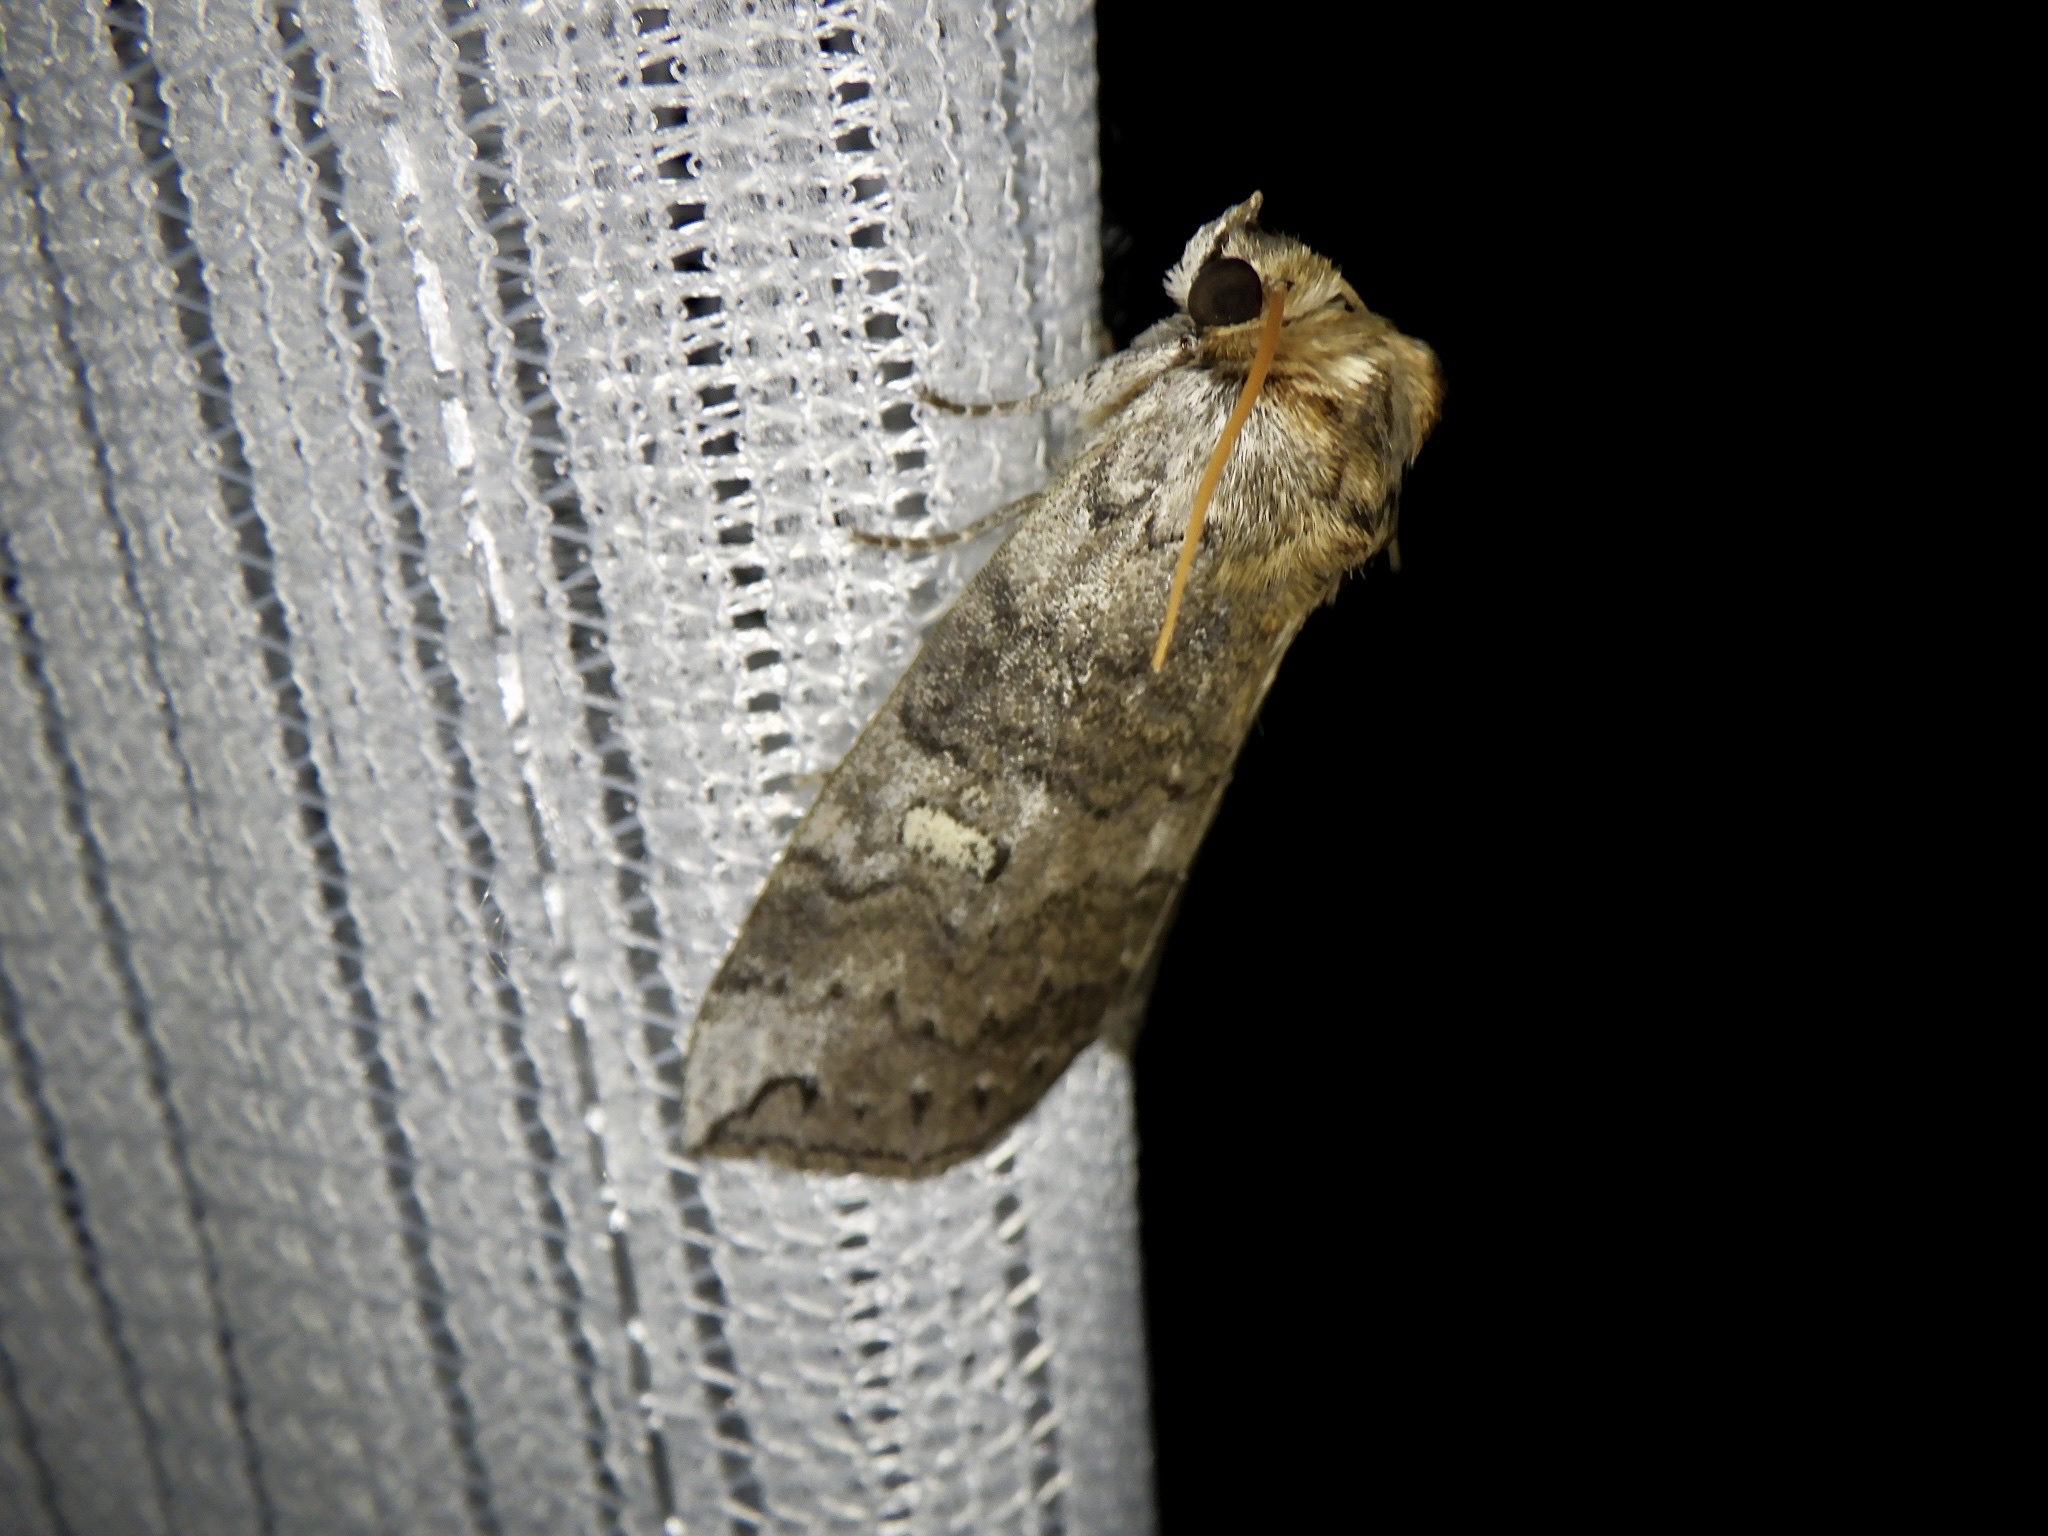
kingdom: Animalia
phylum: Arthropoda
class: Insecta
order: Lepidoptera
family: Drepanidae
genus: Tethea
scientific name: Tethea ampliata
